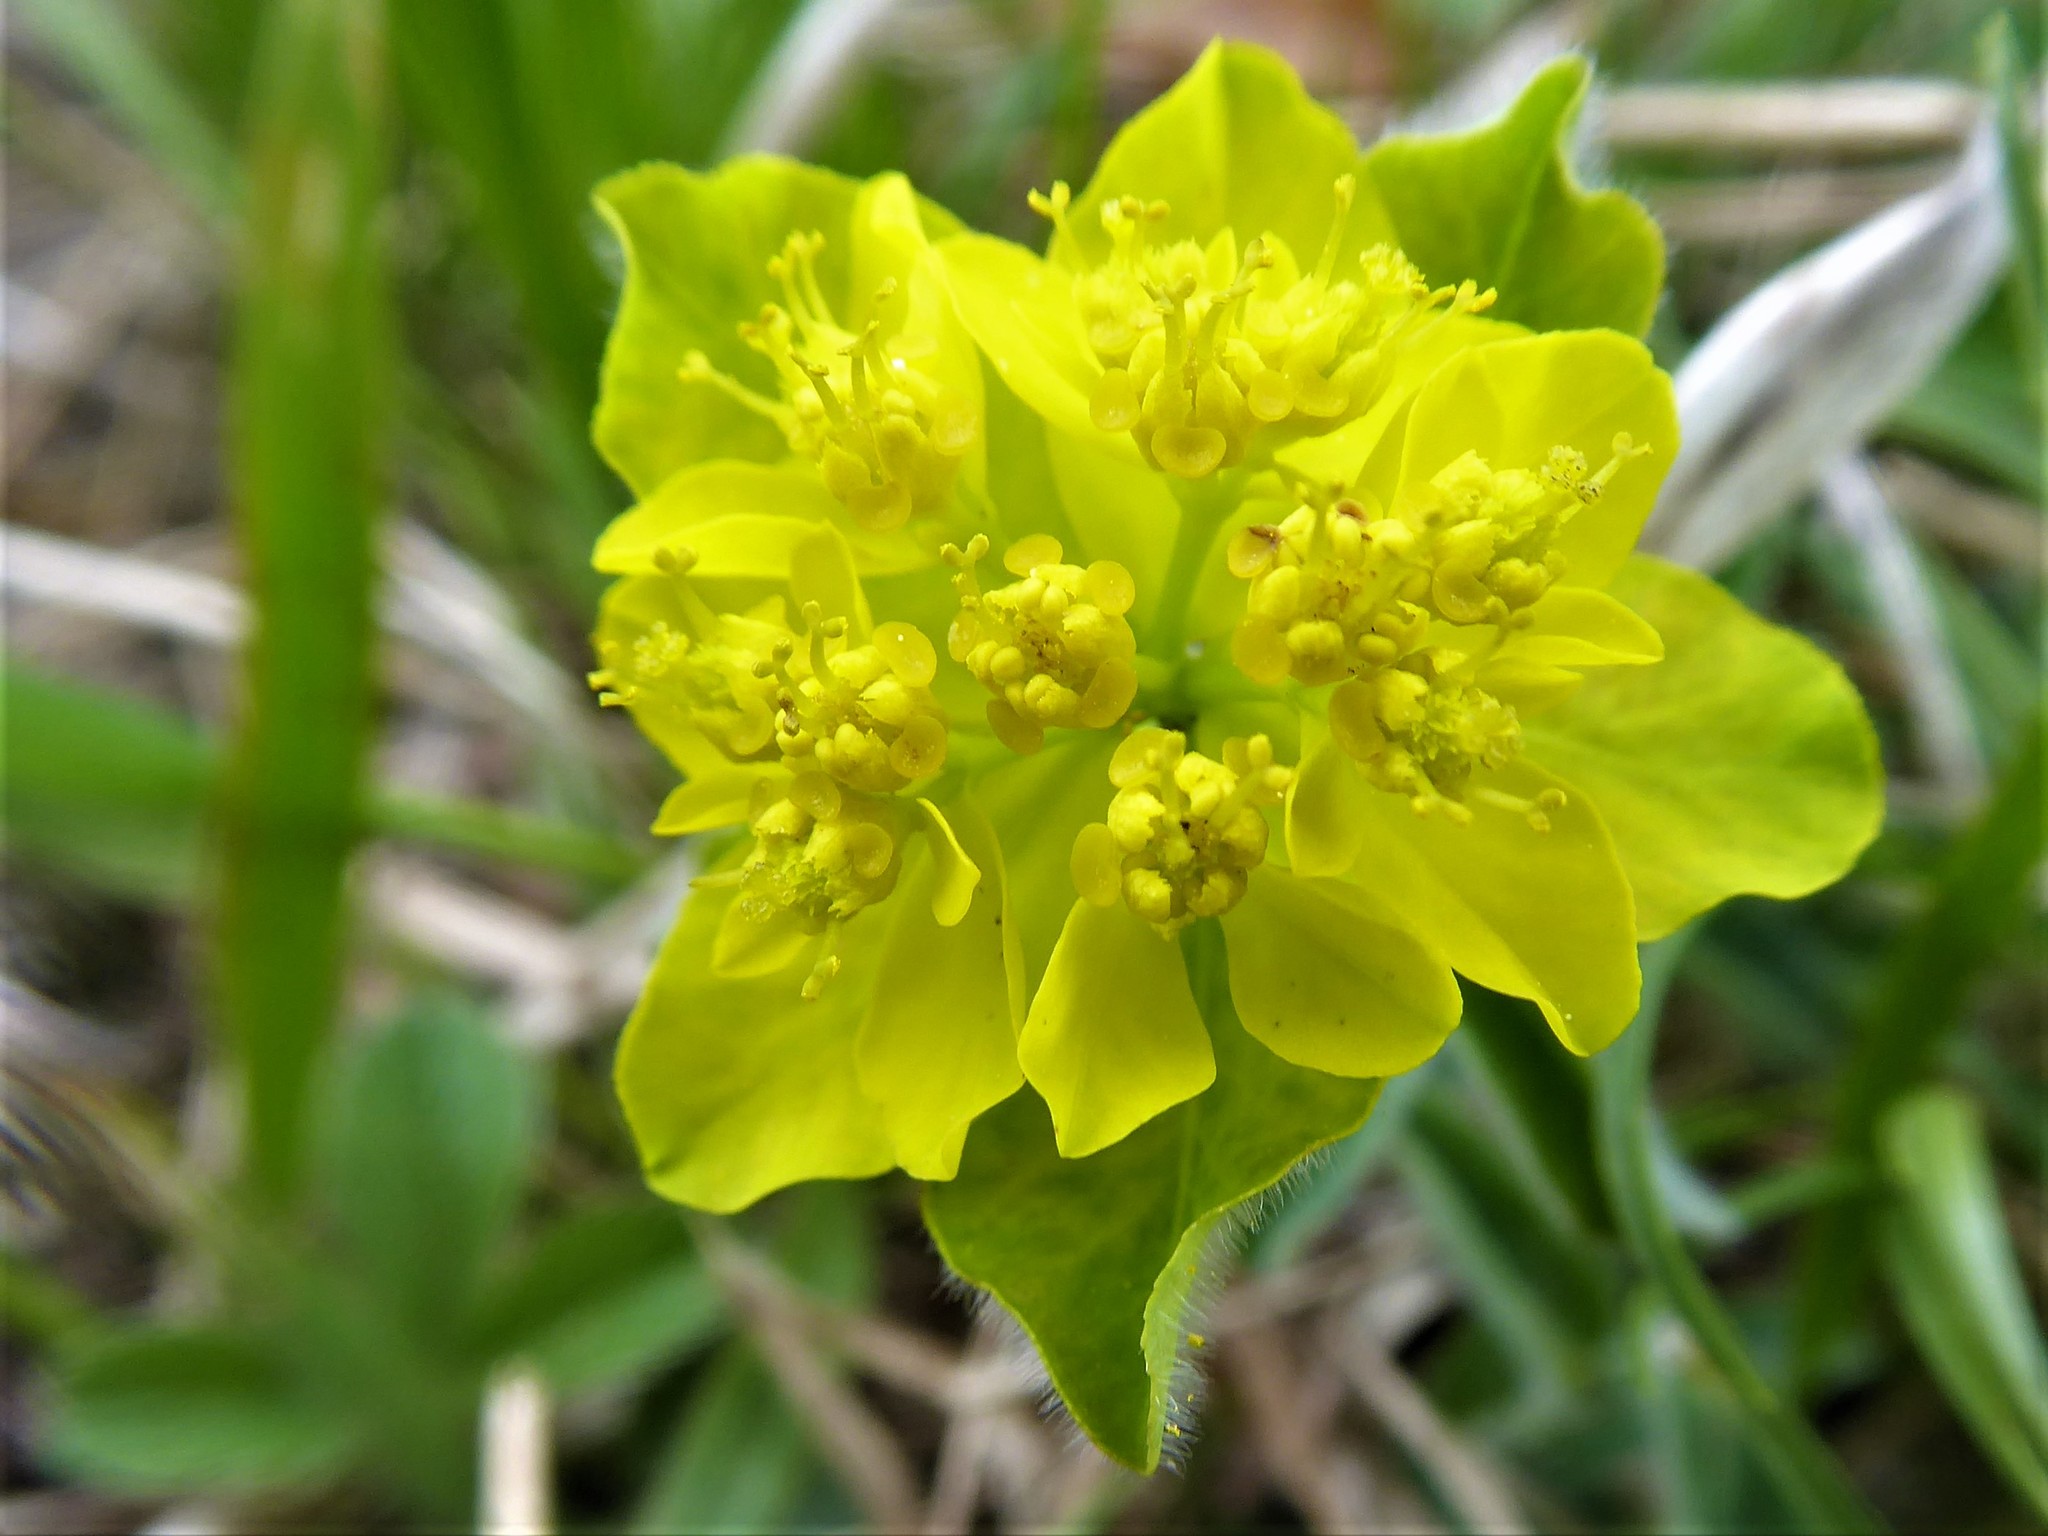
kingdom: Plantae
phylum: Tracheophyta
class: Magnoliopsida
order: Malpighiales
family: Euphorbiaceae
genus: Euphorbia
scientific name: Euphorbia epithymoides
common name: Cushion spurge
